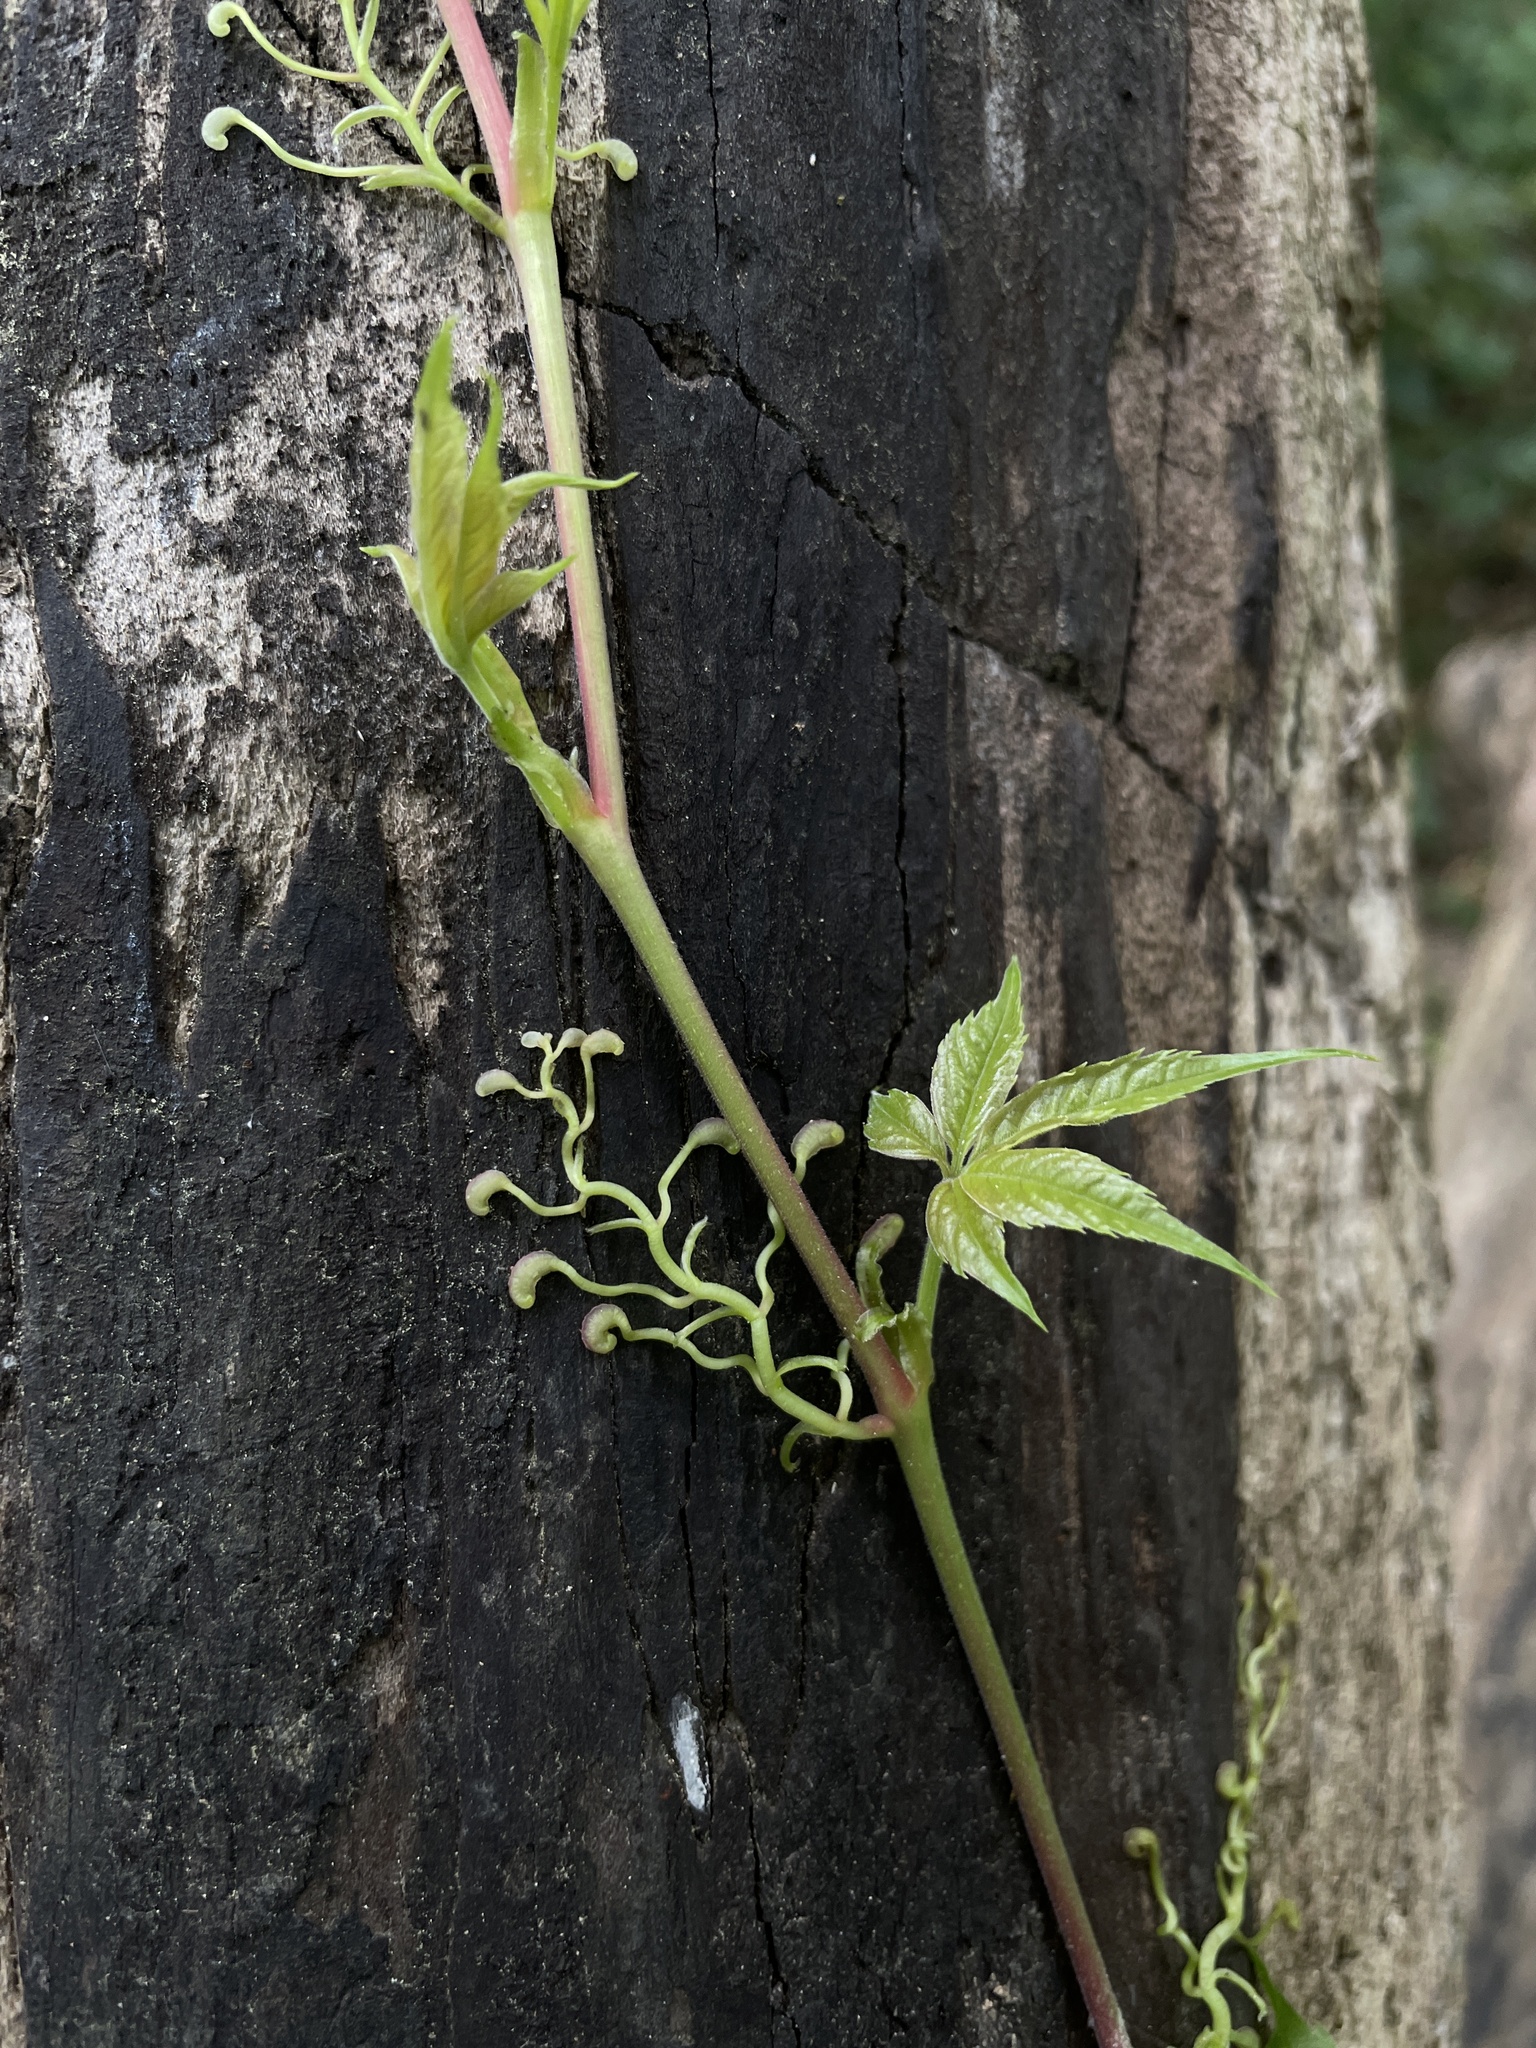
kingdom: Plantae
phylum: Tracheophyta
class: Magnoliopsida
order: Vitales
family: Vitaceae
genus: Parthenocissus
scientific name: Parthenocissus quinquefolia
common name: Virginia-creeper
